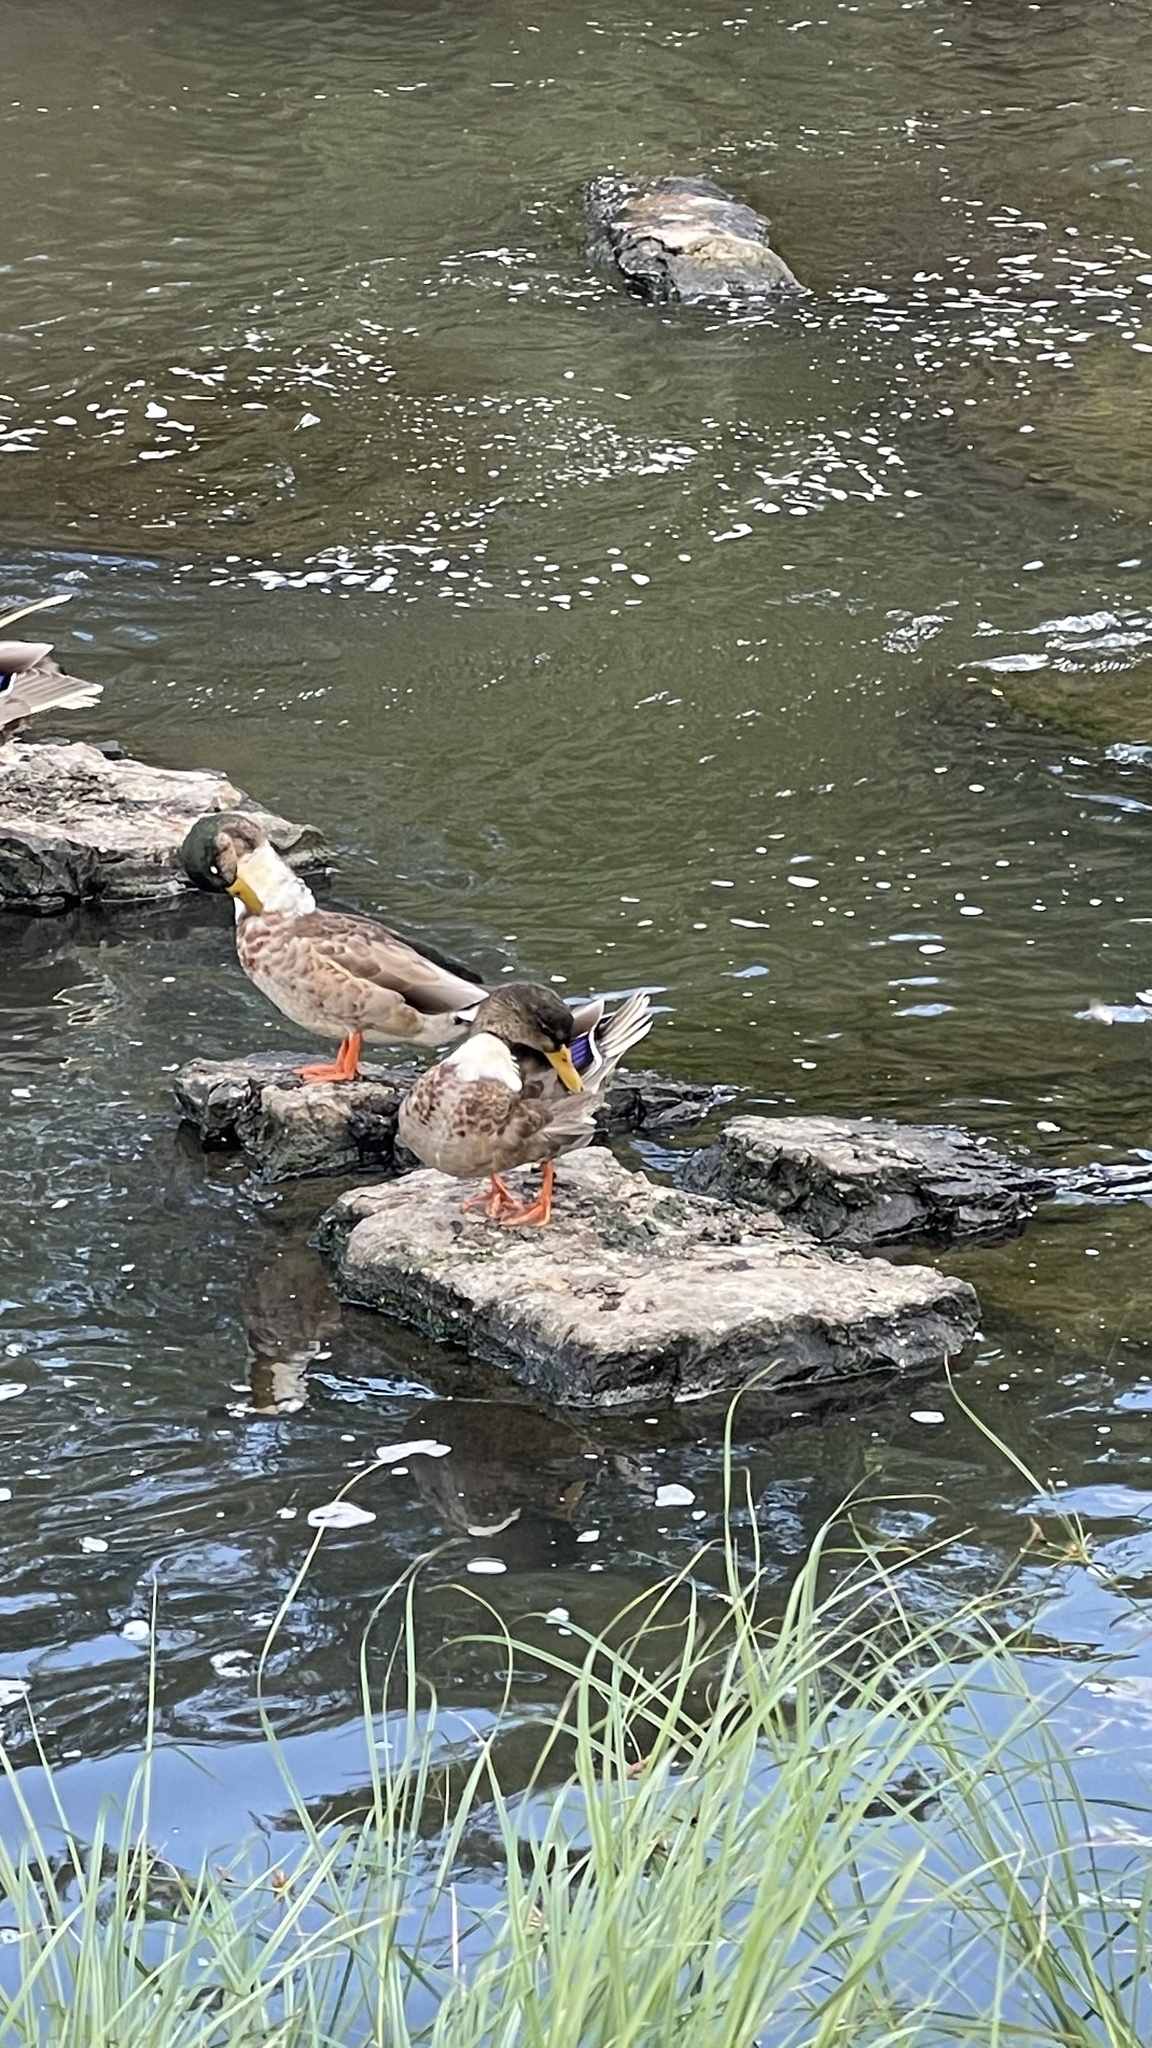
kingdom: Animalia
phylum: Chordata
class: Aves
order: Anseriformes
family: Anatidae
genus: Anas
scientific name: Anas platyrhynchos
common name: Mallard
